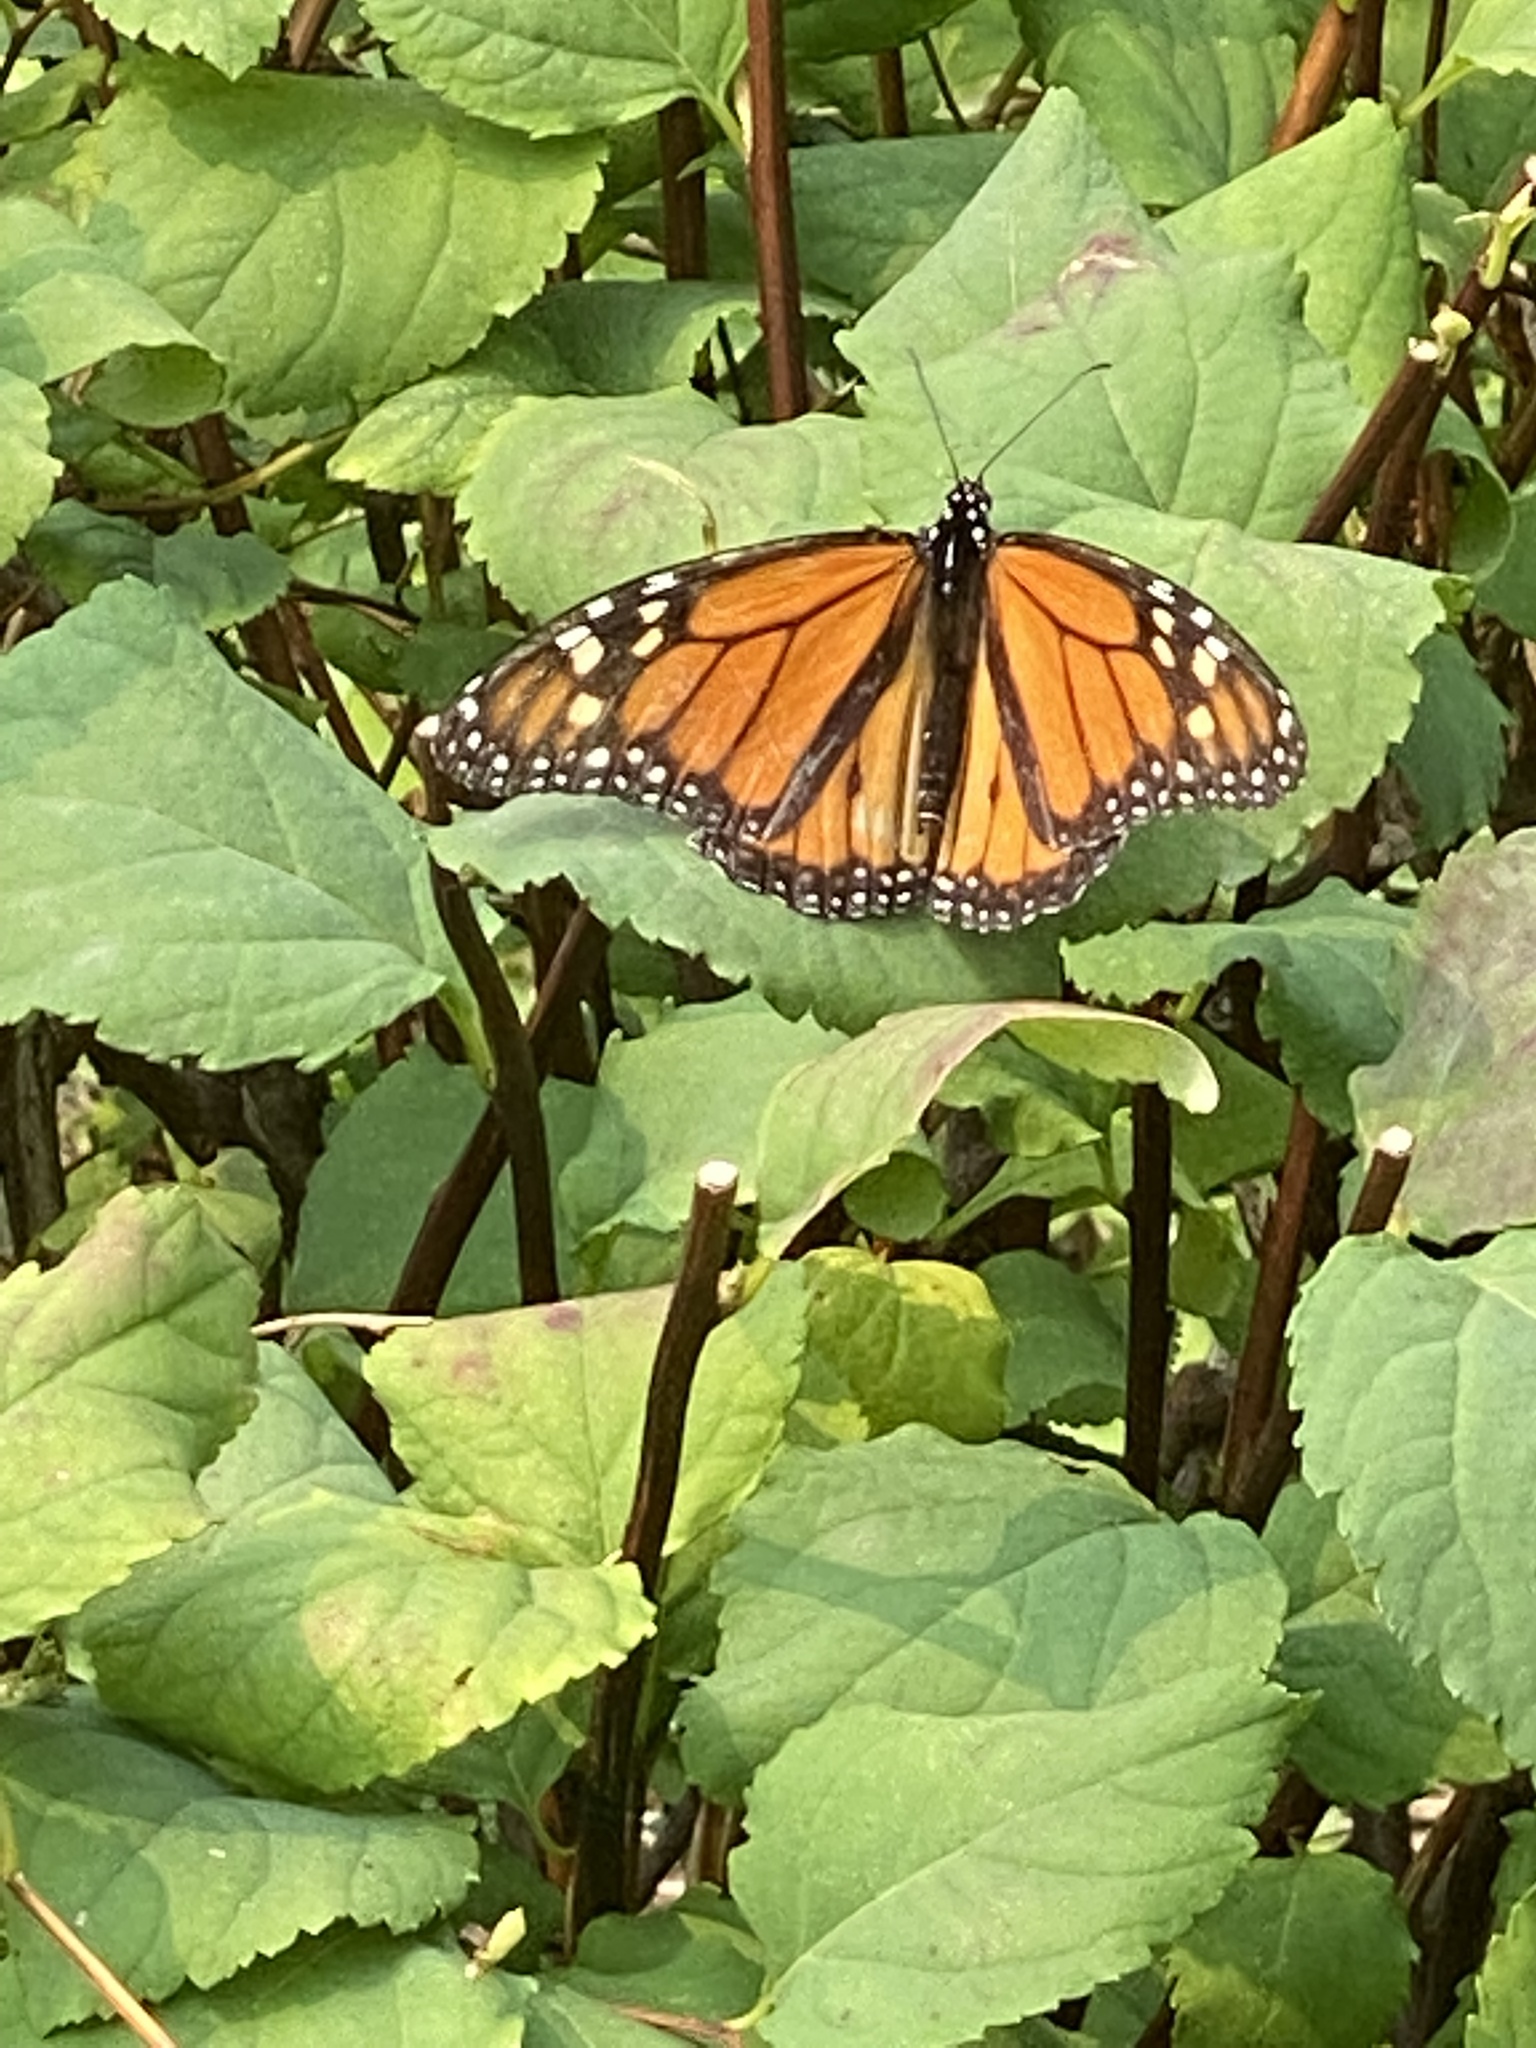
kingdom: Animalia
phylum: Arthropoda
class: Insecta
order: Lepidoptera
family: Nymphalidae
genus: Danaus
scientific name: Danaus plexippus
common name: Monarch
